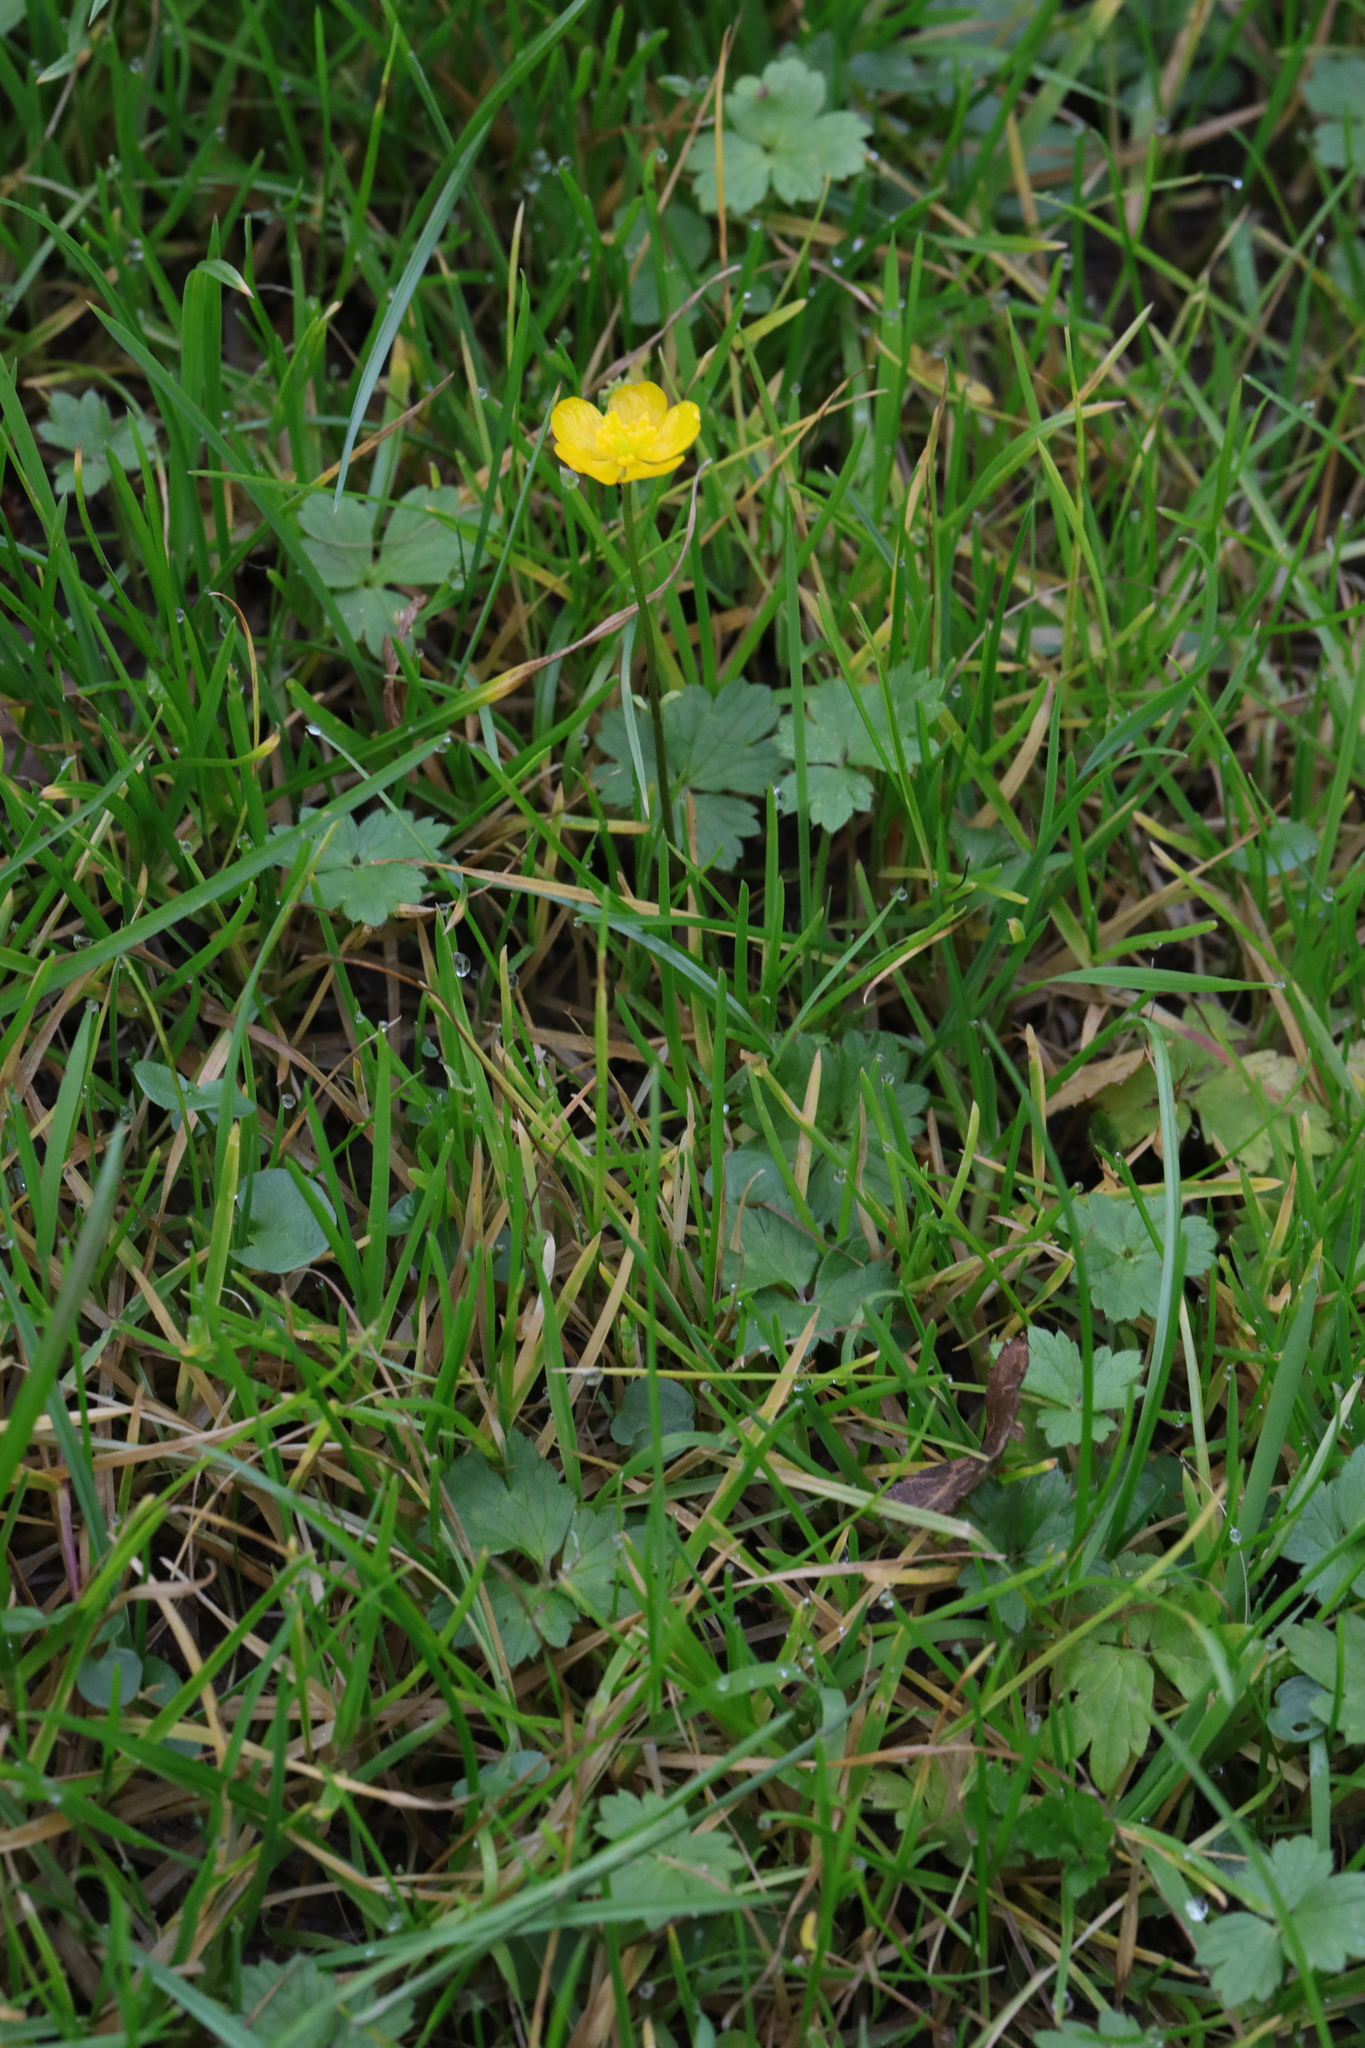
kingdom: Plantae
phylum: Tracheophyta
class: Magnoliopsida
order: Ranunculales
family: Ranunculaceae
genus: Ranunculus
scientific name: Ranunculus repens
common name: Creeping buttercup
